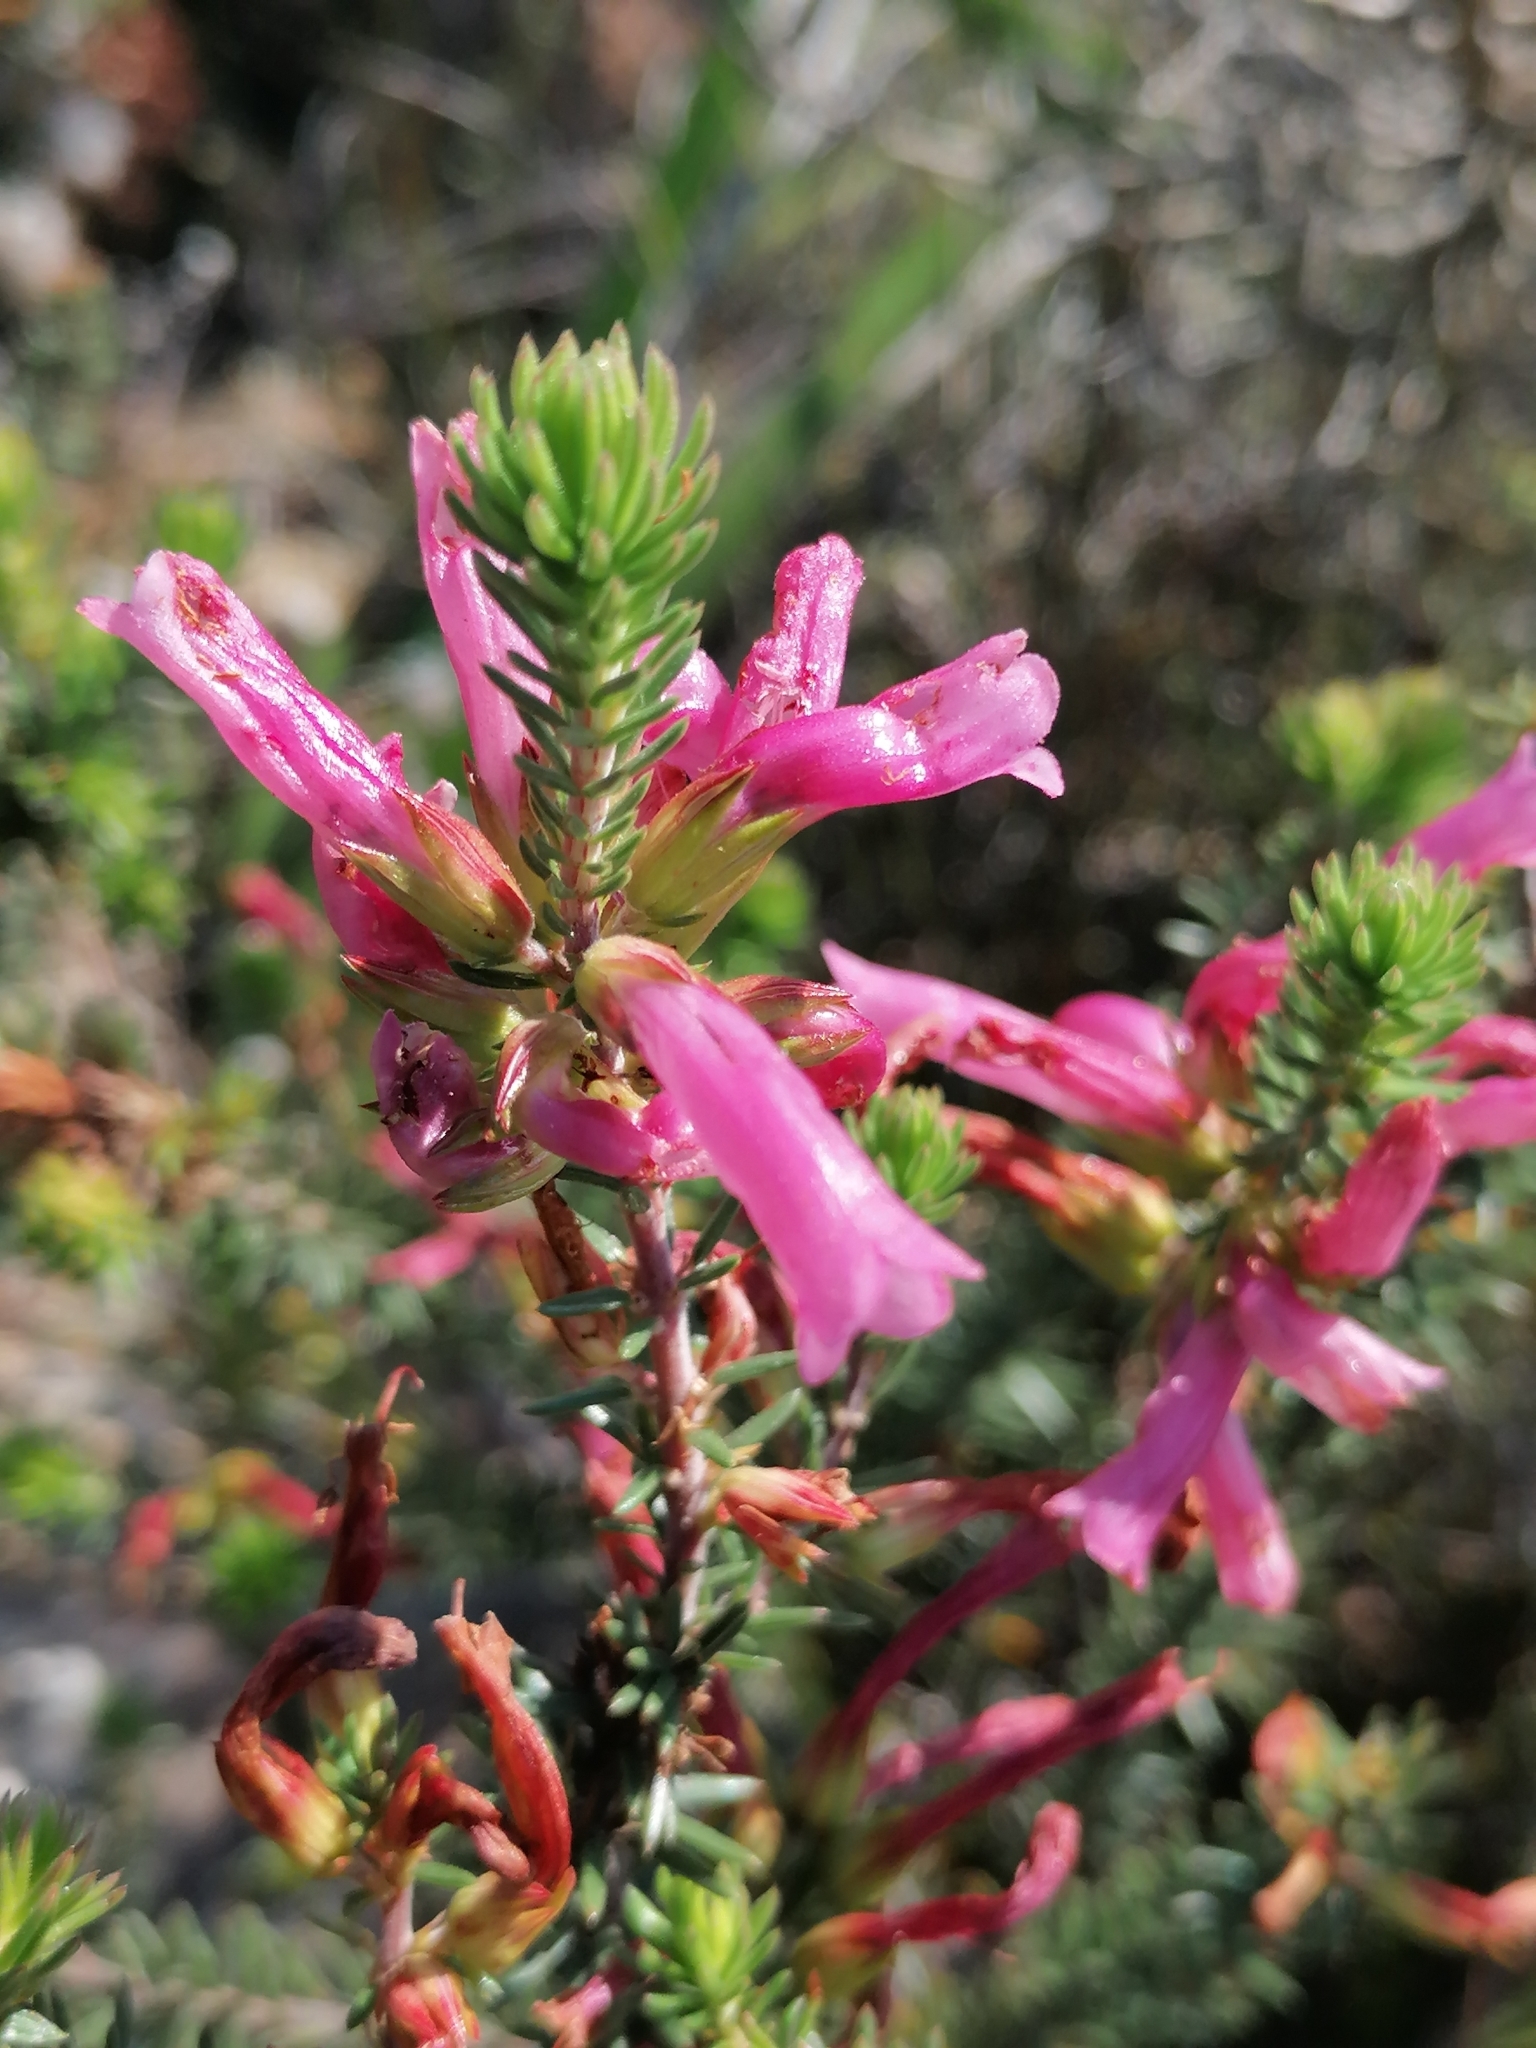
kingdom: Plantae
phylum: Tracheophyta
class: Magnoliopsida
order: Ericales
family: Ericaceae
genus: Erica
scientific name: Erica abietina
